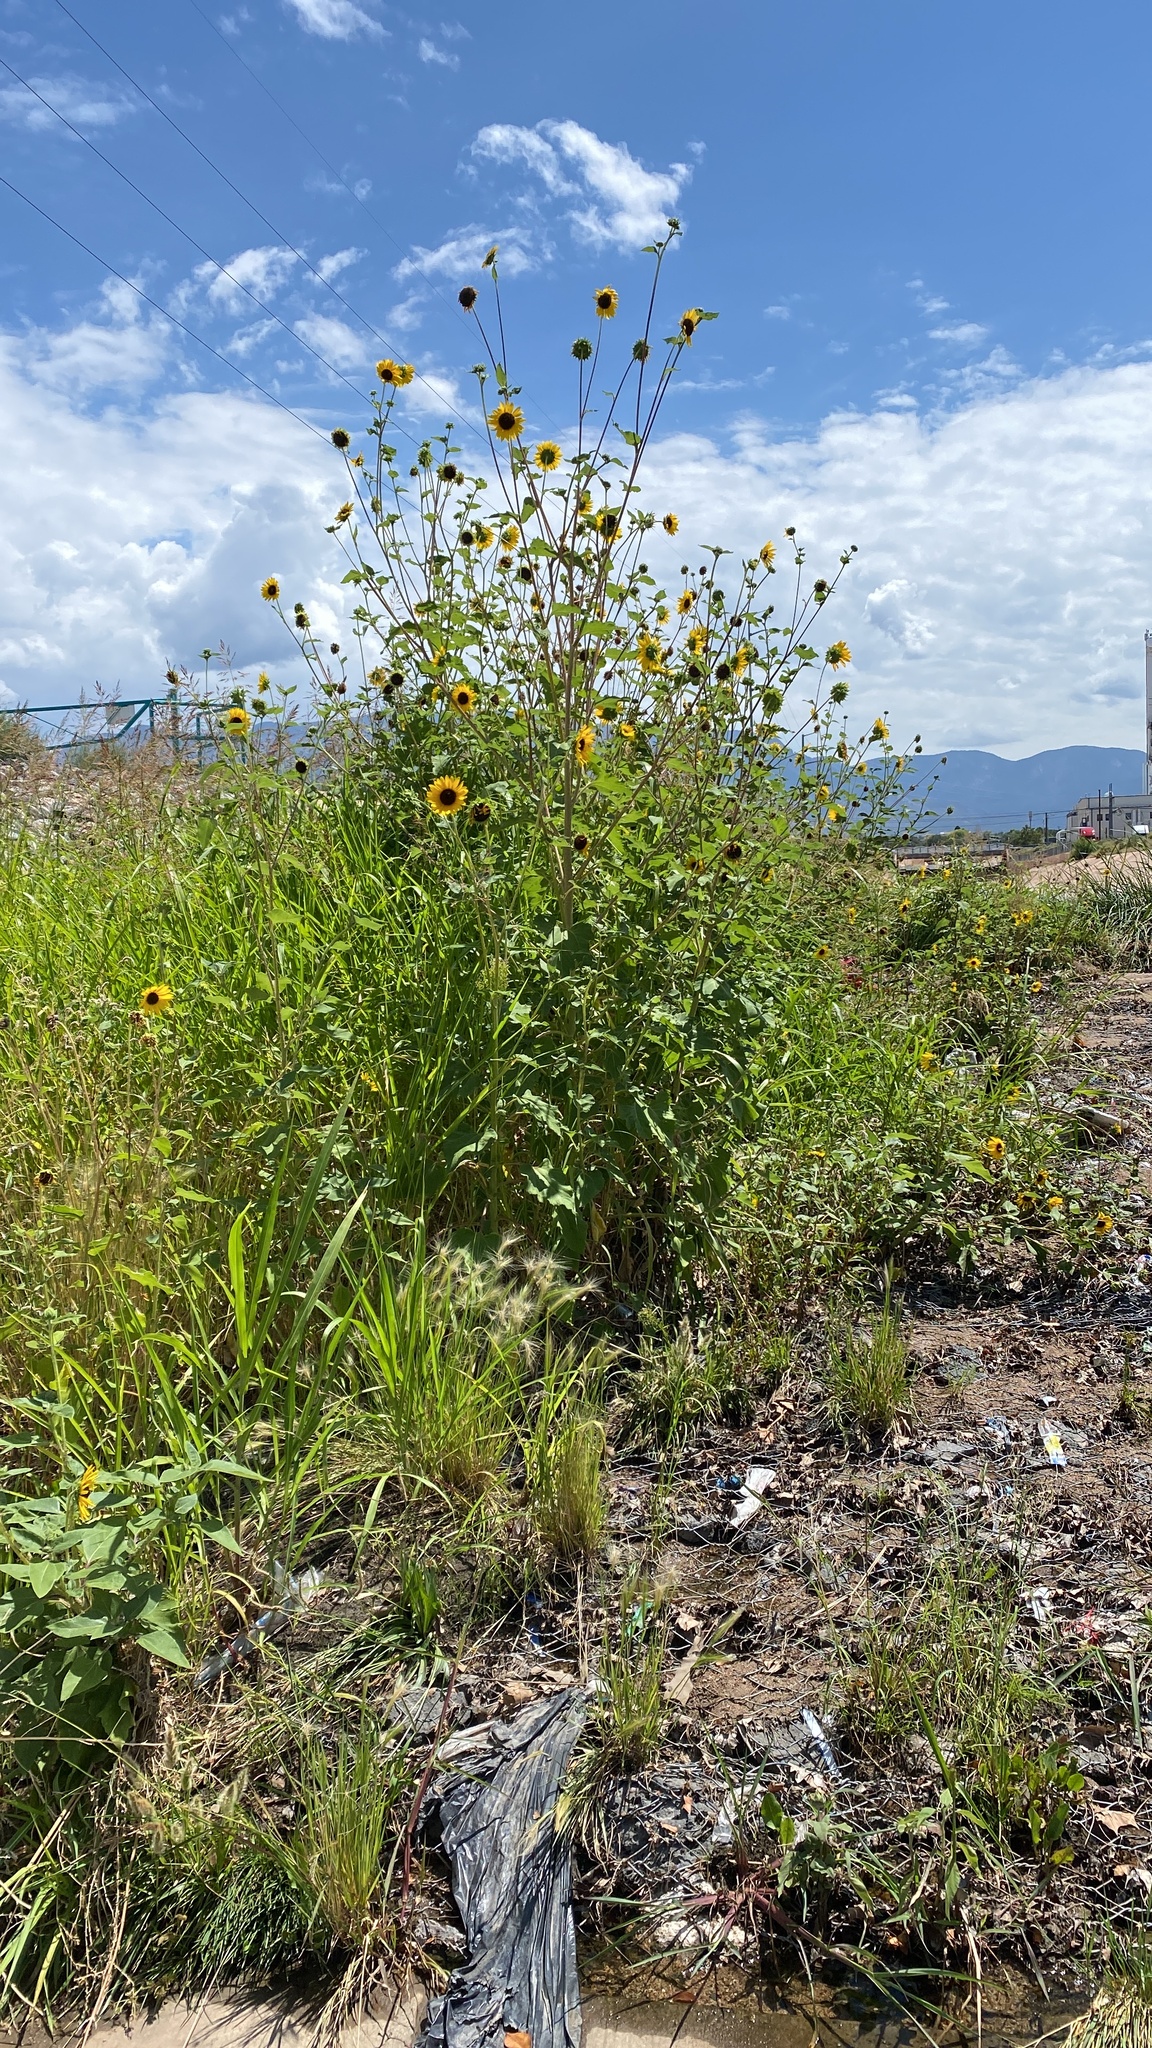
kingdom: Plantae
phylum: Tracheophyta
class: Magnoliopsida
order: Asterales
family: Asteraceae
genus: Helianthus
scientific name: Helianthus annuus
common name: Sunflower
